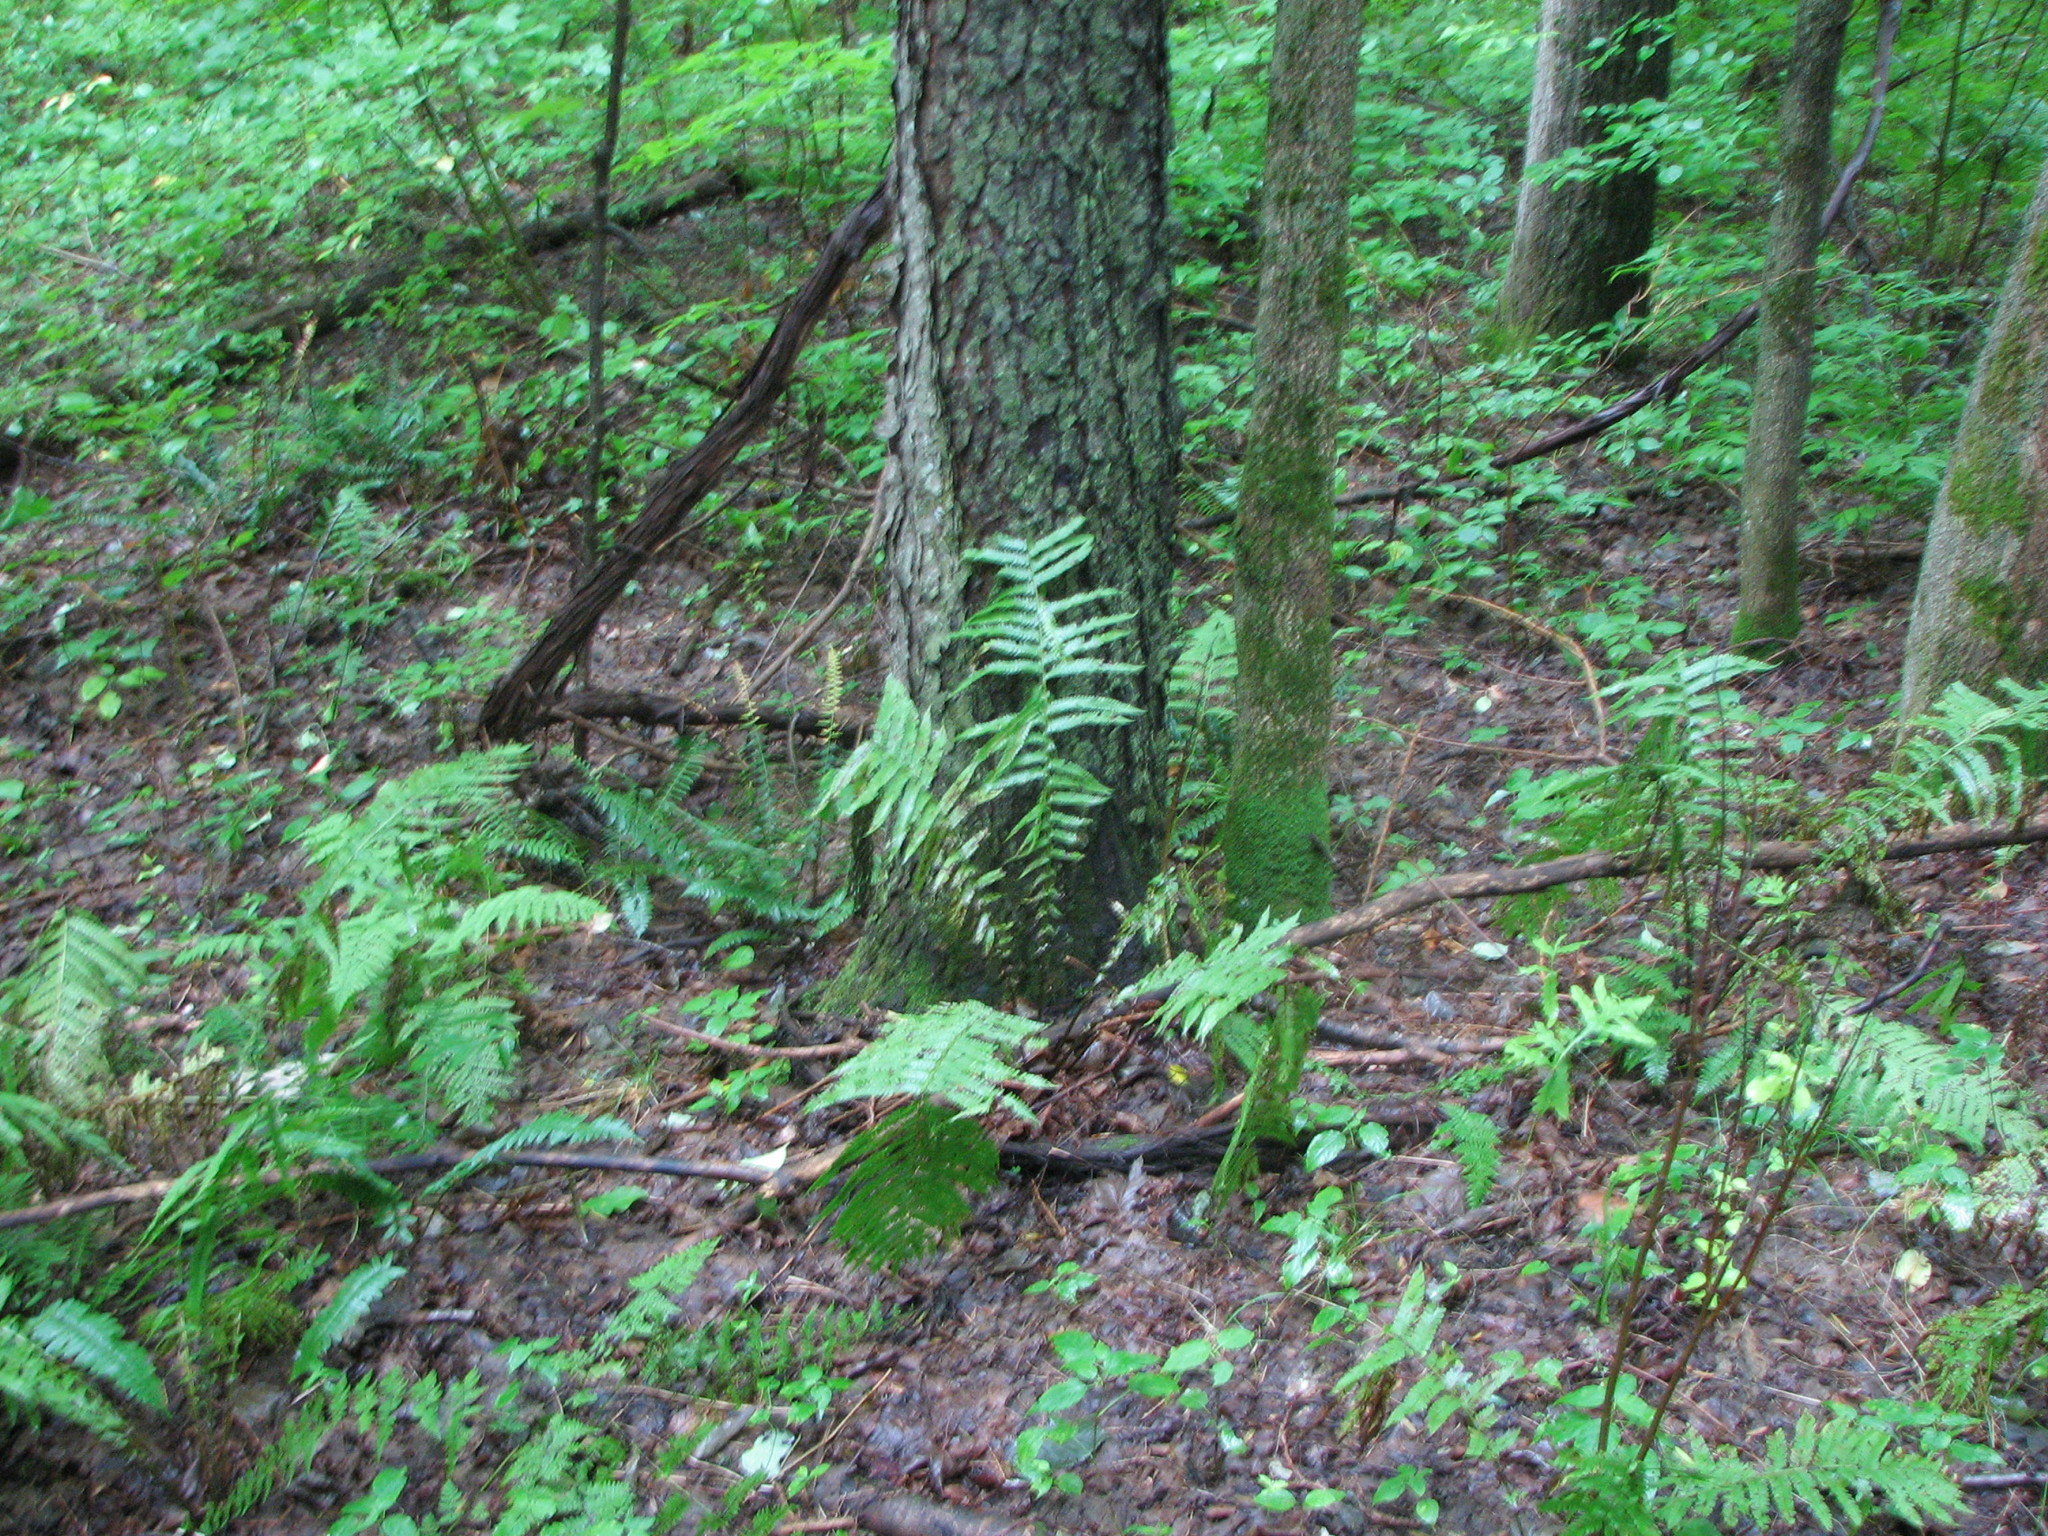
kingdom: Plantae
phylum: Tracheophyta
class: Polypodiopsida
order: Polypodiales
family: Onocleaceae
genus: Matteuccia
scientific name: Matteuccia struthiopteris
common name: Ostrich fern
